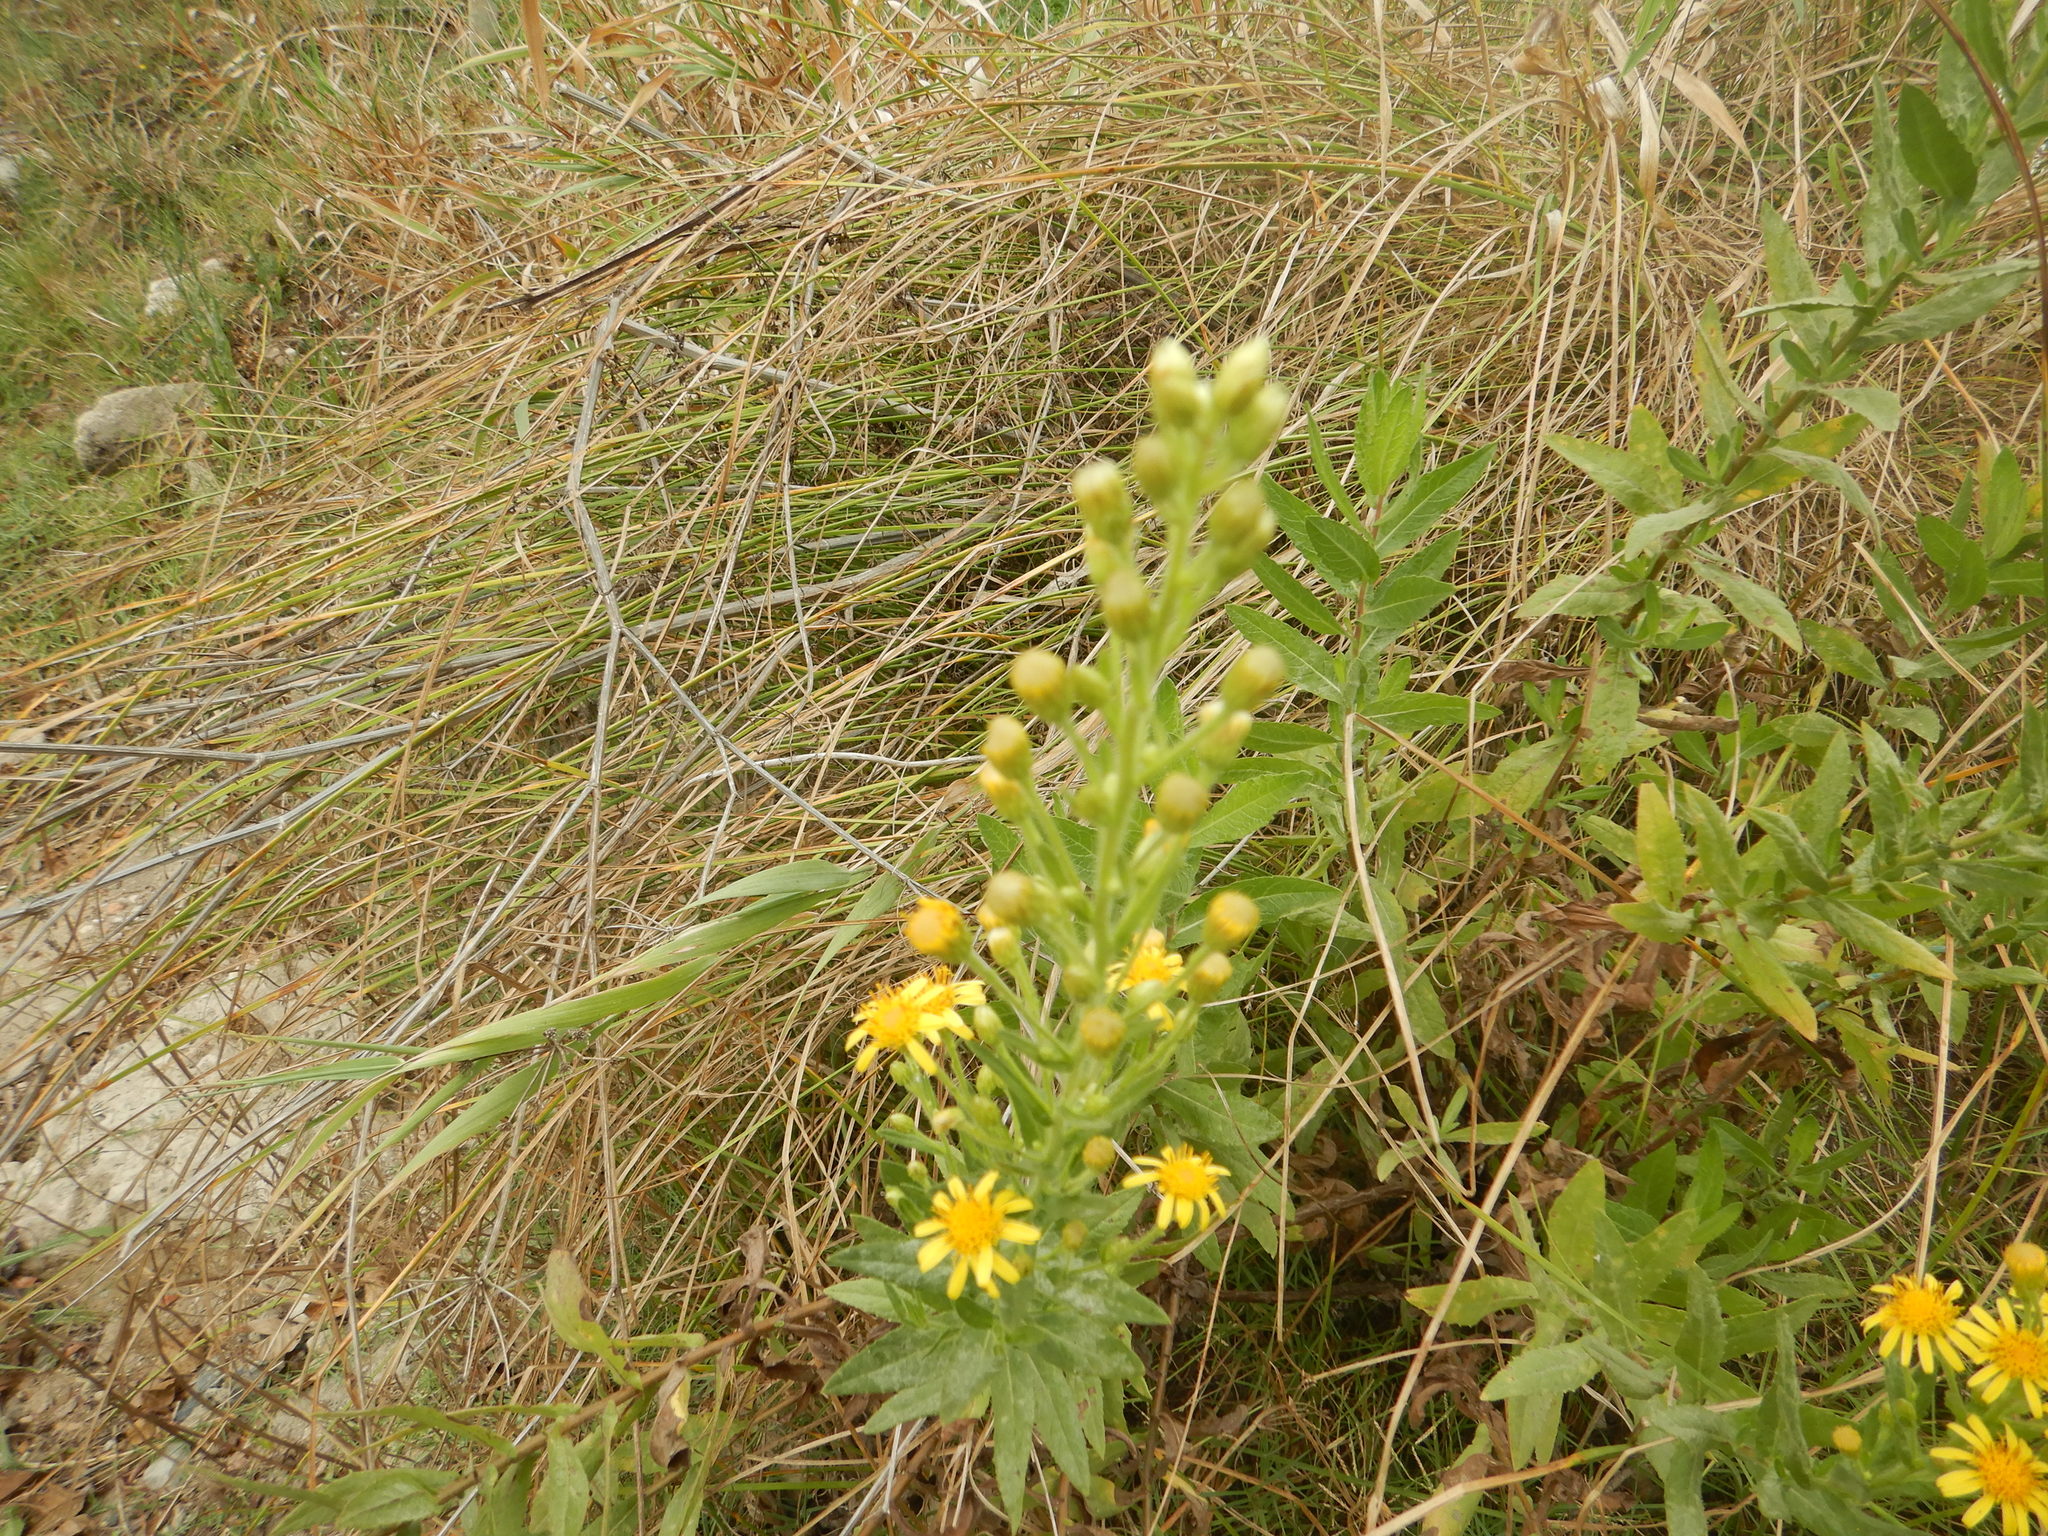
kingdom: Plantae
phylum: Tracheophyta
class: Magnoliopsida
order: Asterales
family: Asteraceae
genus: Dittrichia
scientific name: Dittrichia viscosa
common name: Woody fleabane
